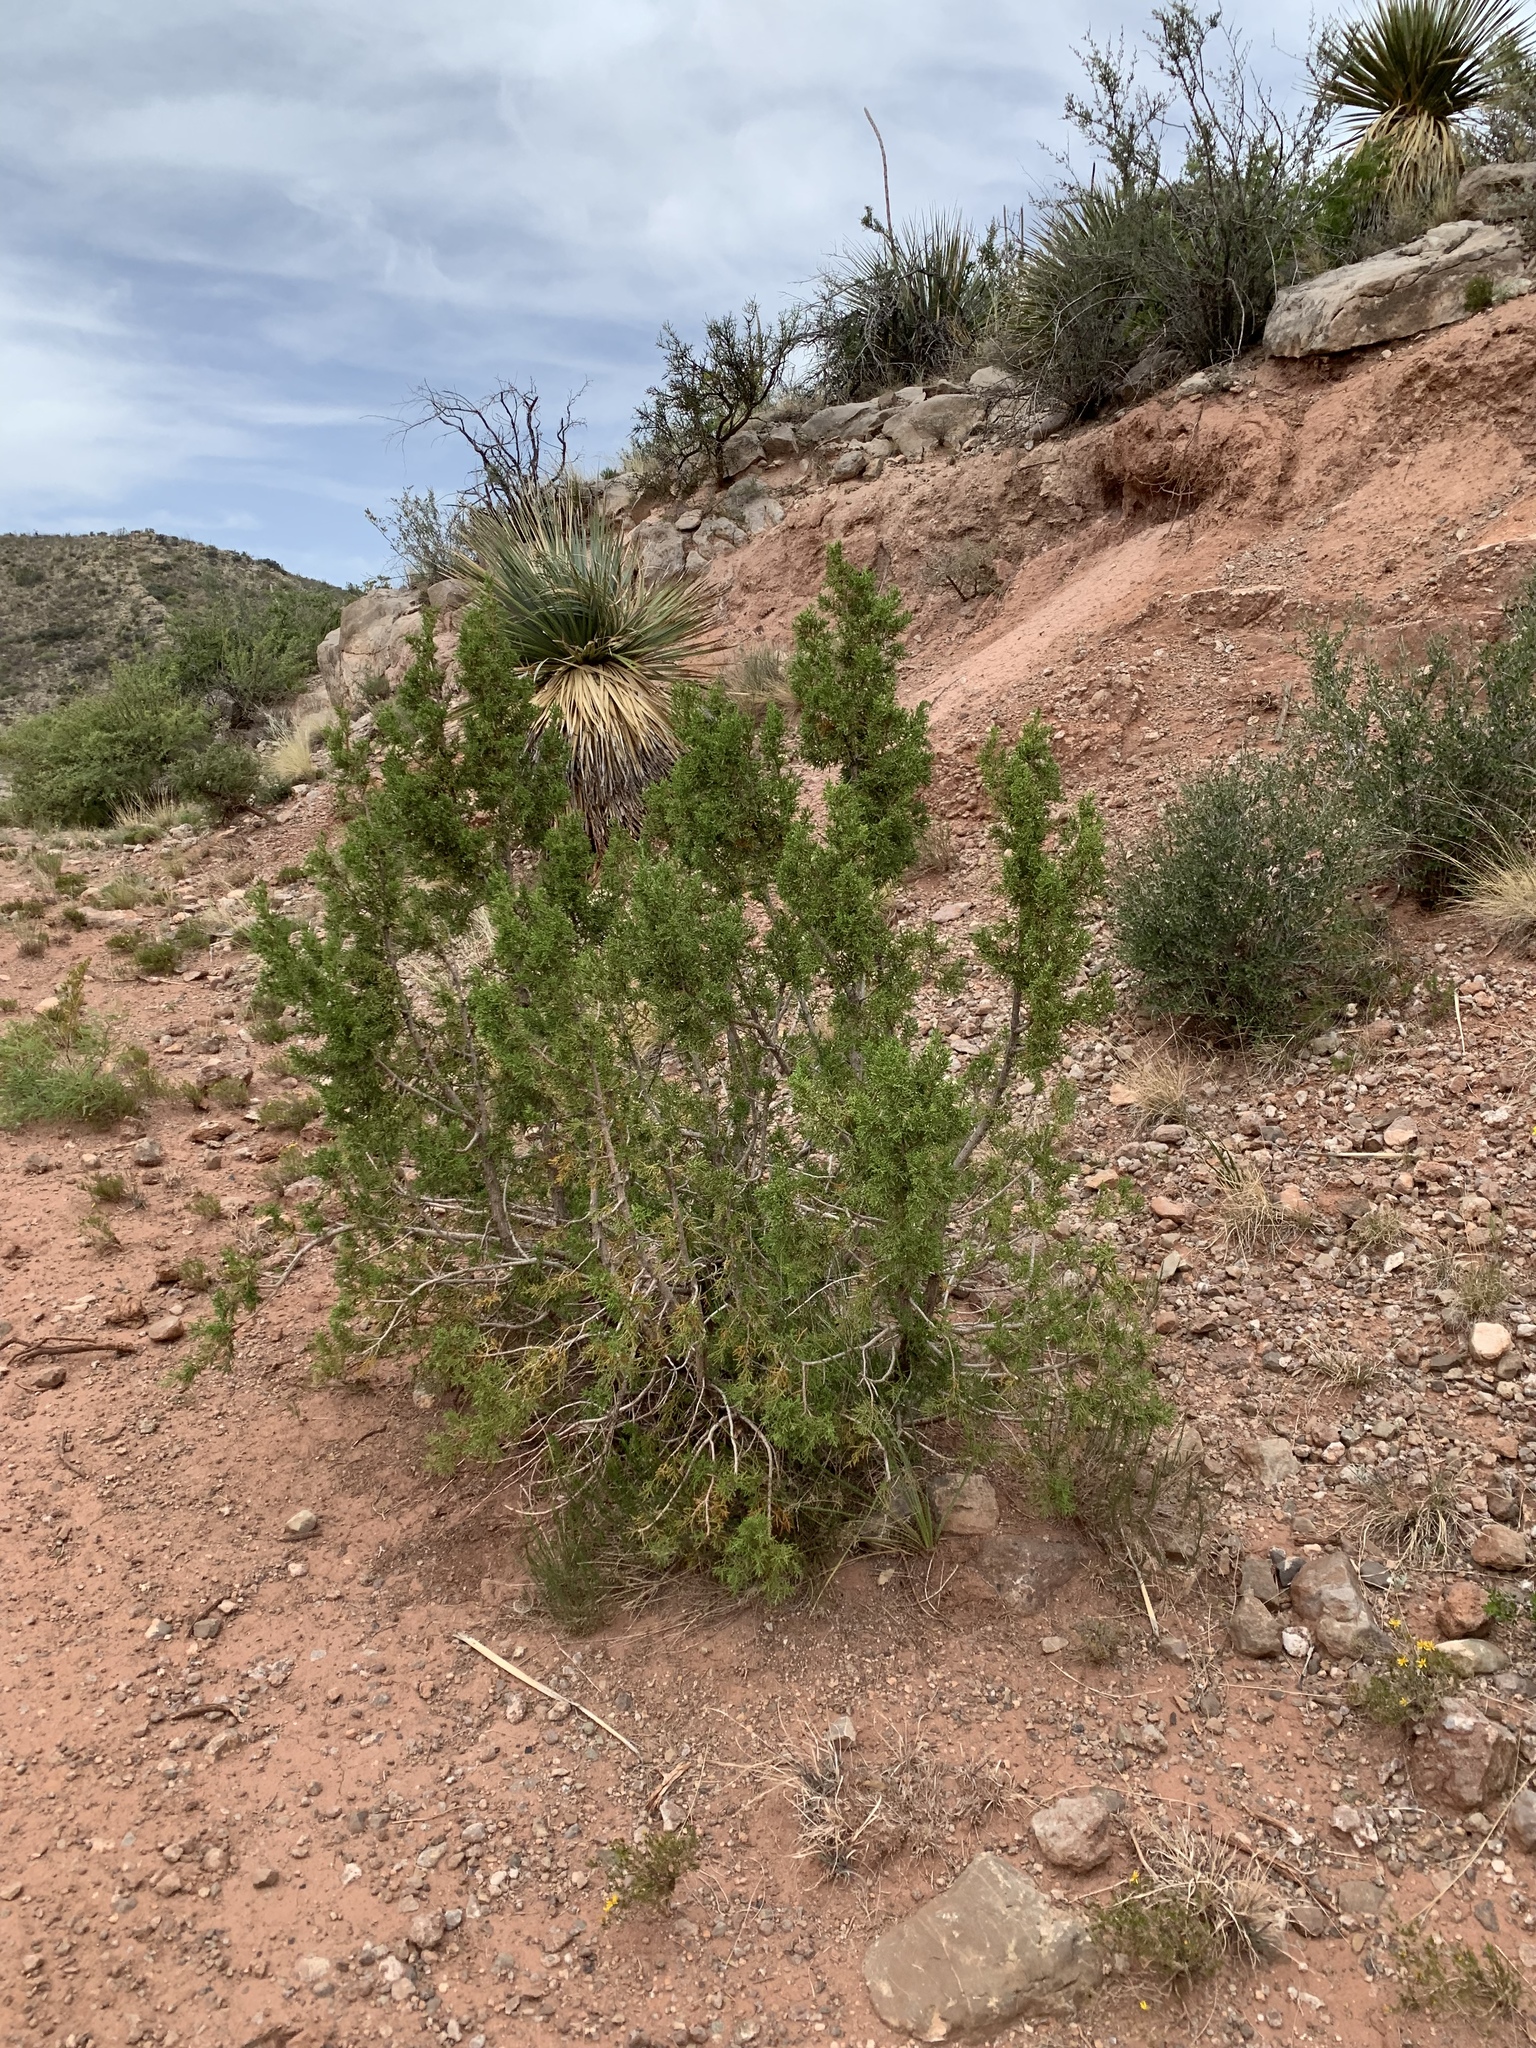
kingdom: Plantae
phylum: Tracheophyta
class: Pinopsida
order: Pinales
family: Cupressaceae
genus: Juniperus
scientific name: Juniperus monosperma
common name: One-seed juniper
